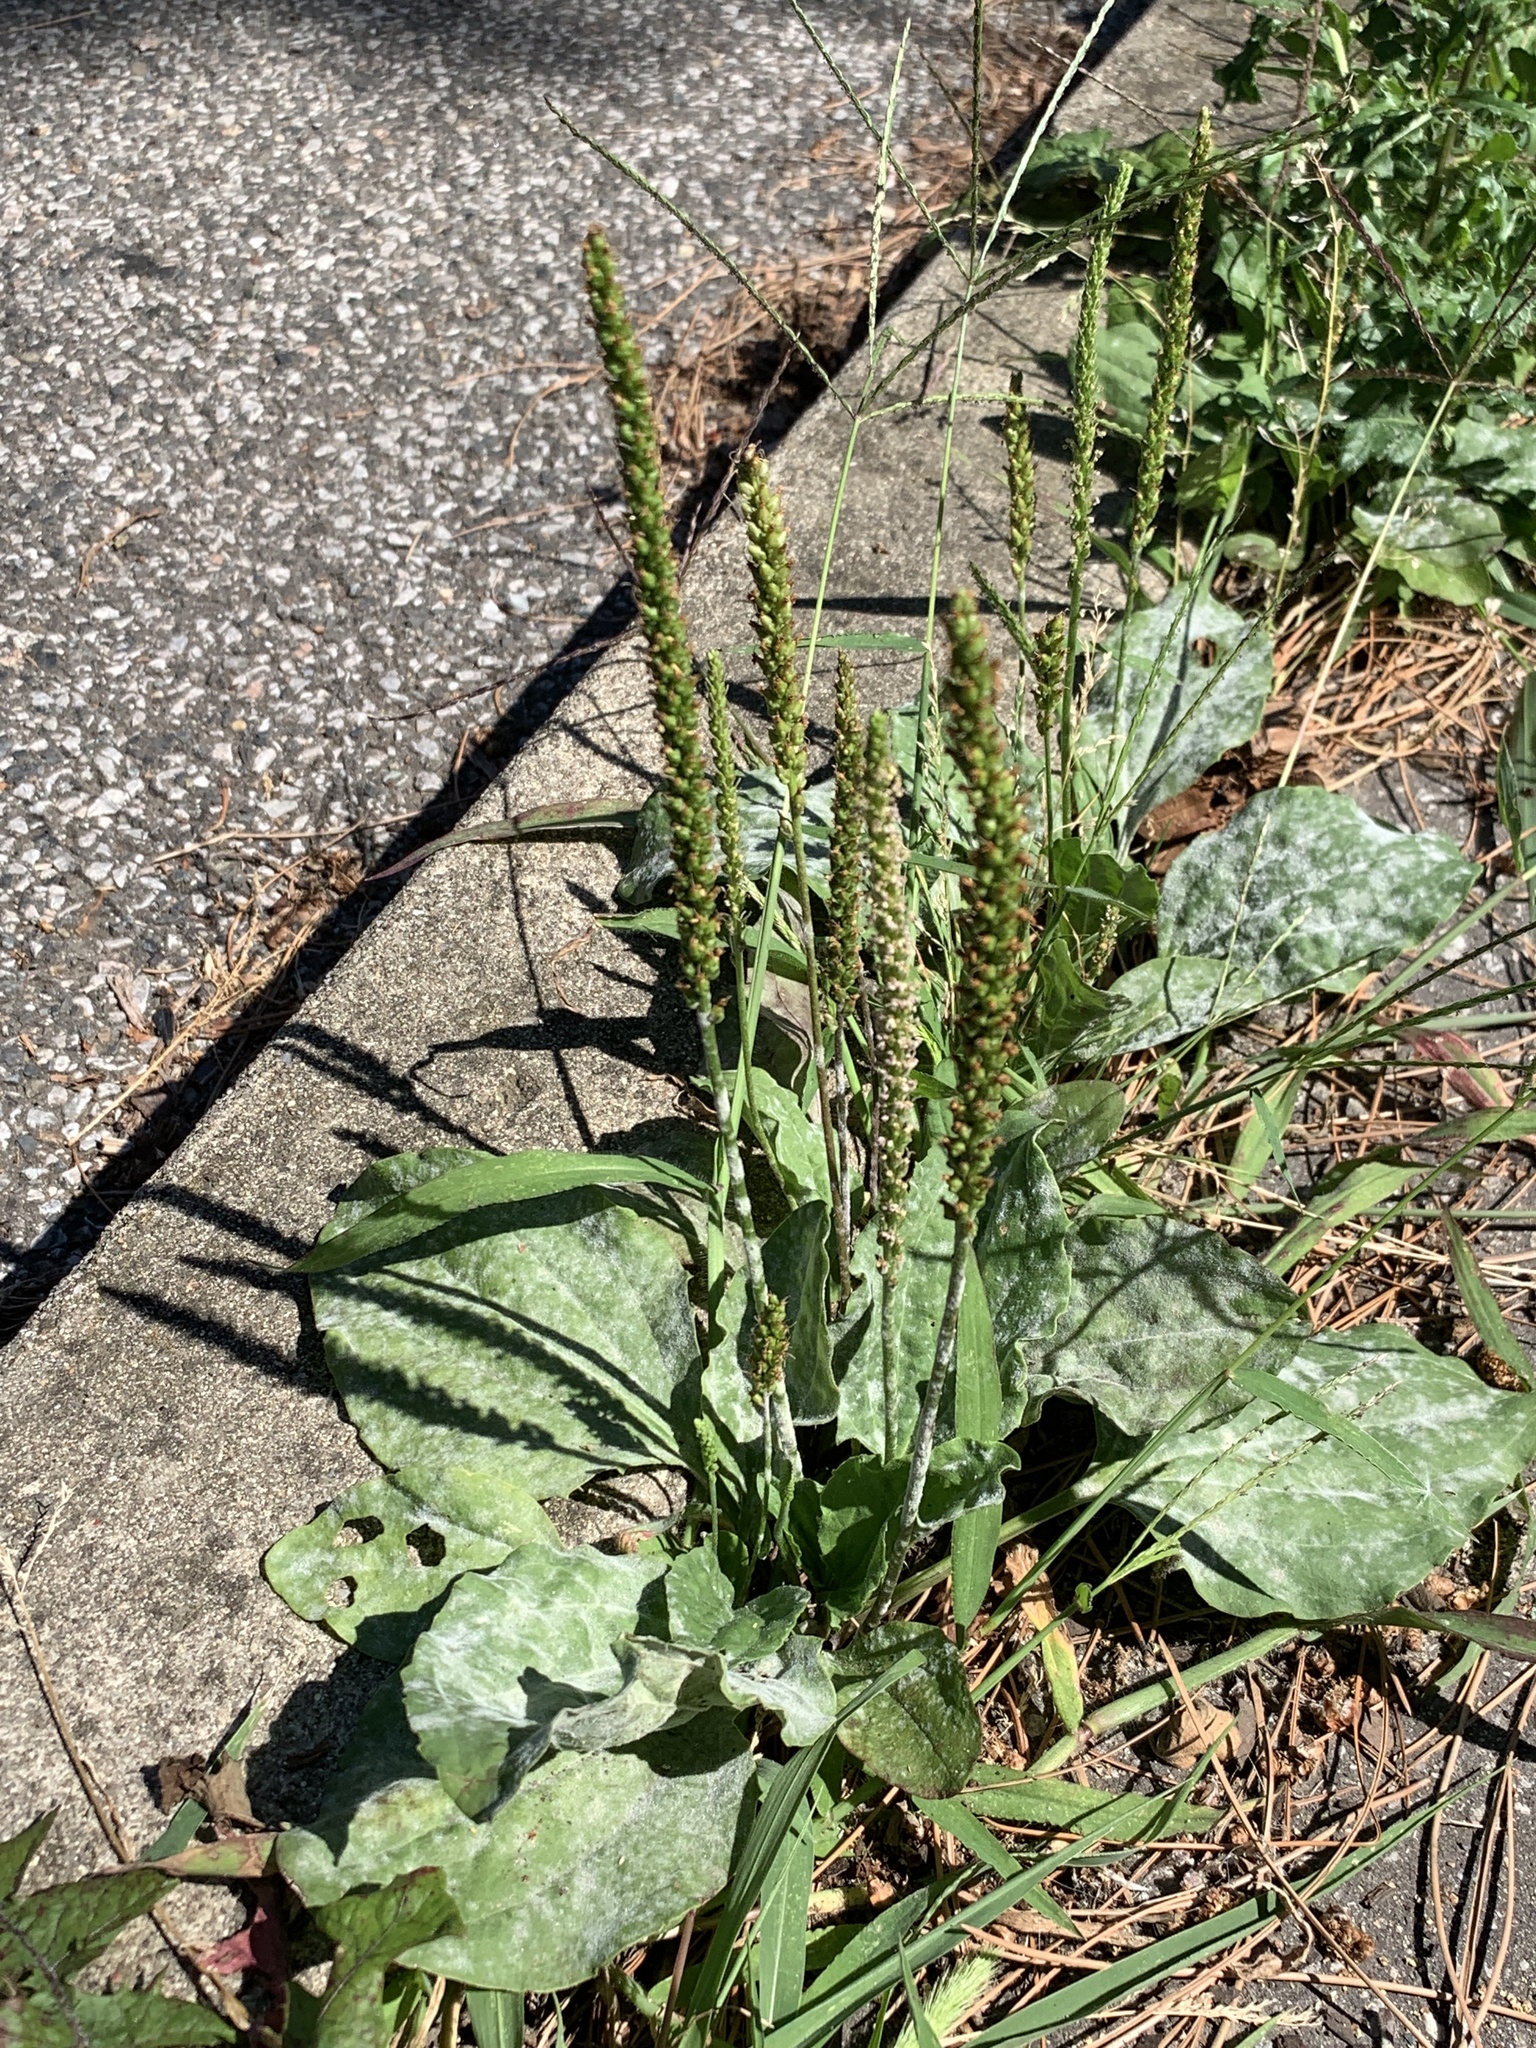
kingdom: Plantae
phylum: Tracheophyta
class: Magnoliopsida
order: Lamiales
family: Plantaginaceae
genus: Plantago
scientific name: Plantago major
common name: Common plantain
